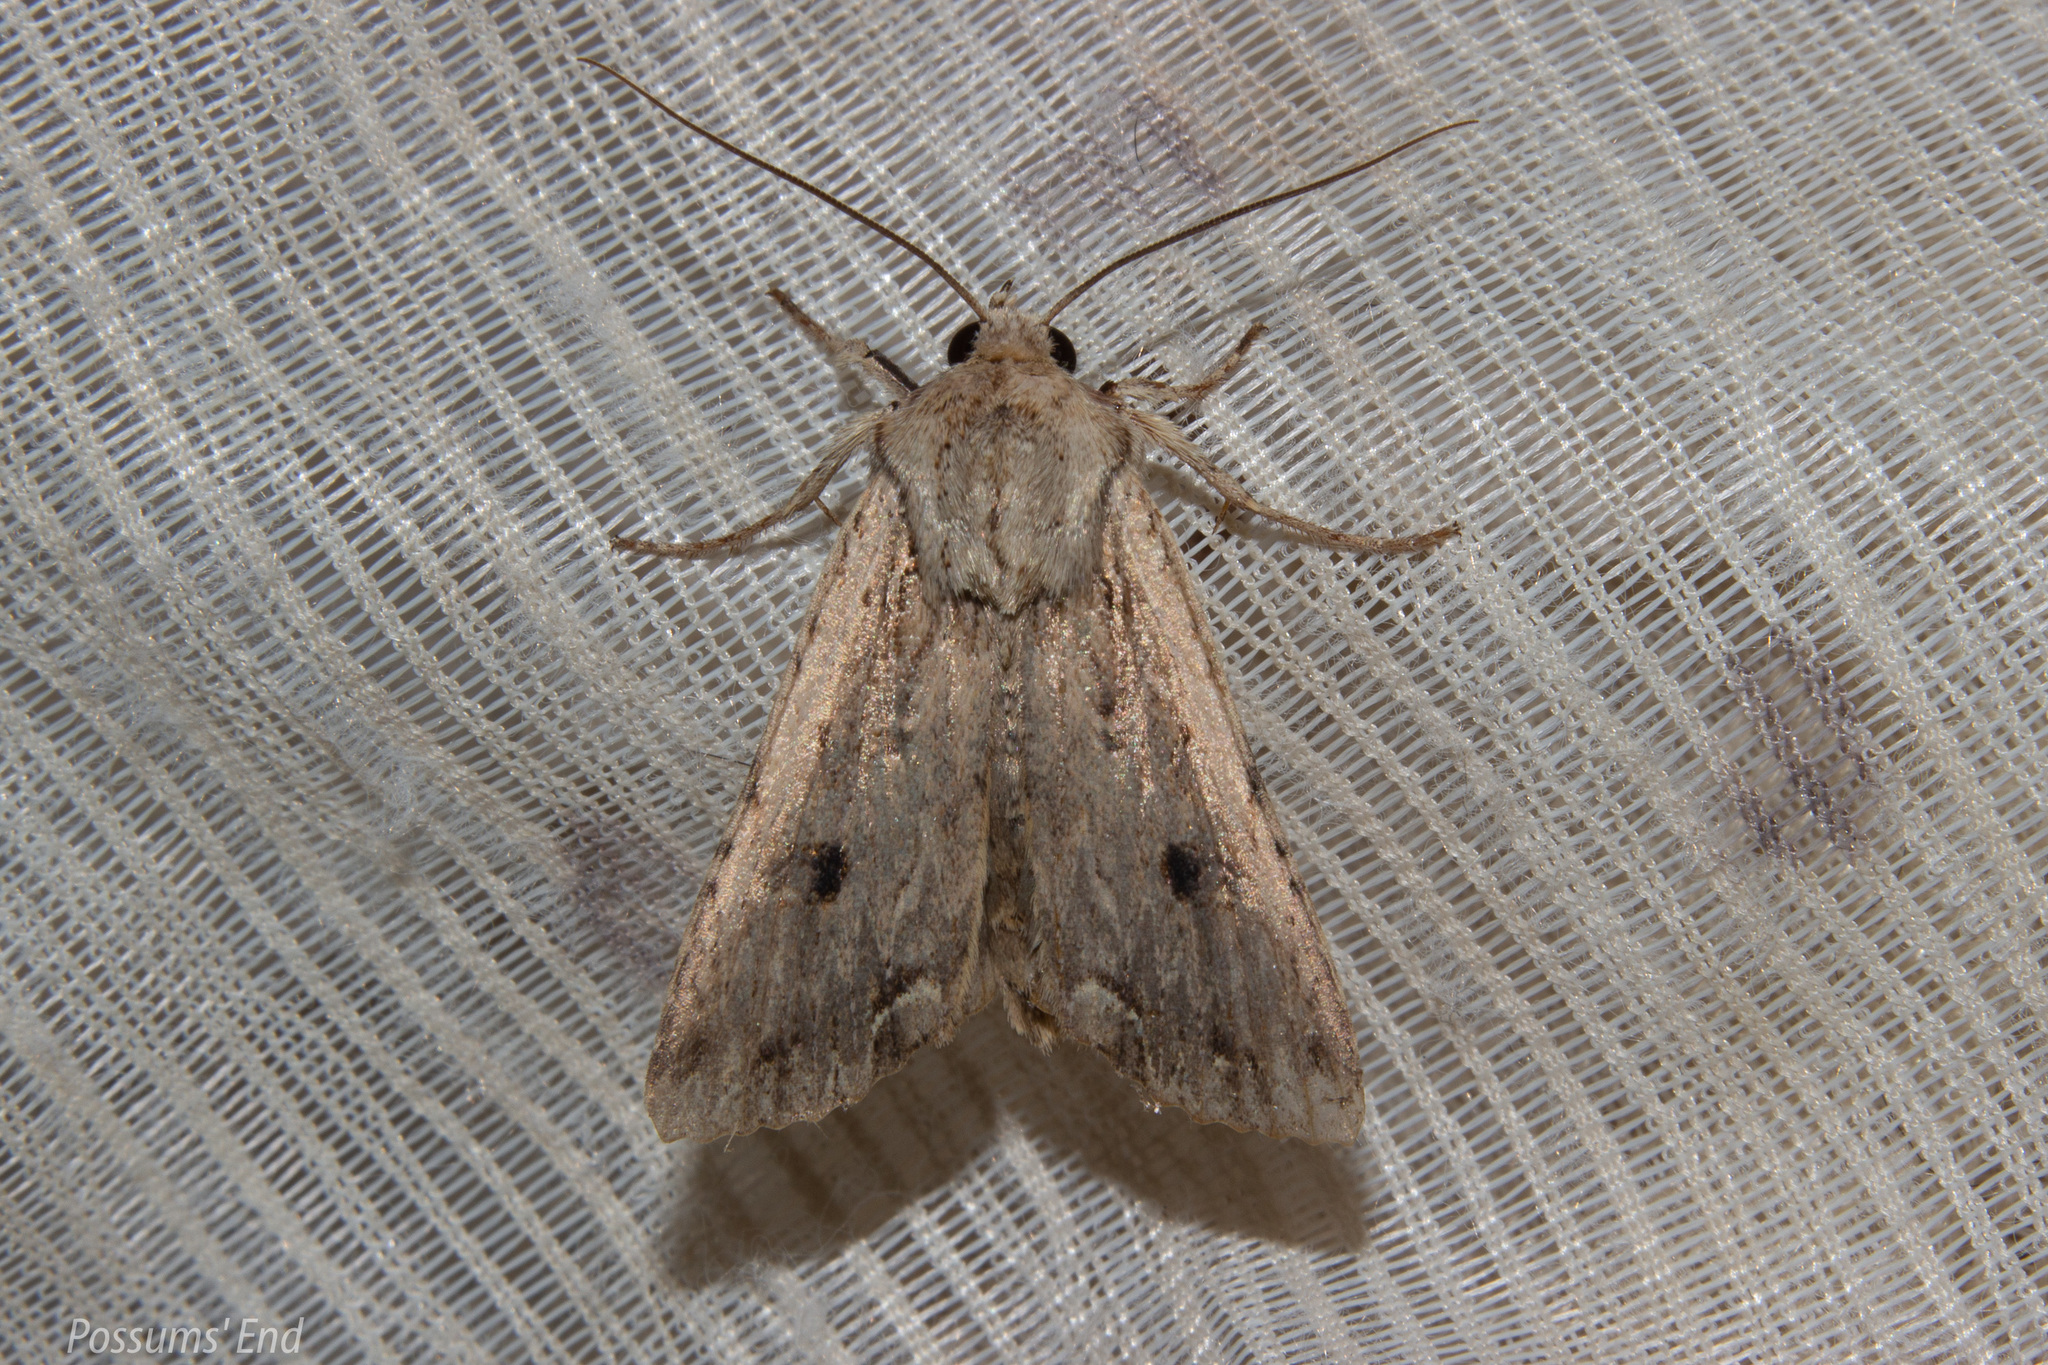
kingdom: Animalia
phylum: Arthropoda
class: Insecta
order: Lepidoptera
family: Noctuidae
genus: Ichneutica
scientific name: Ichneutica lignana
